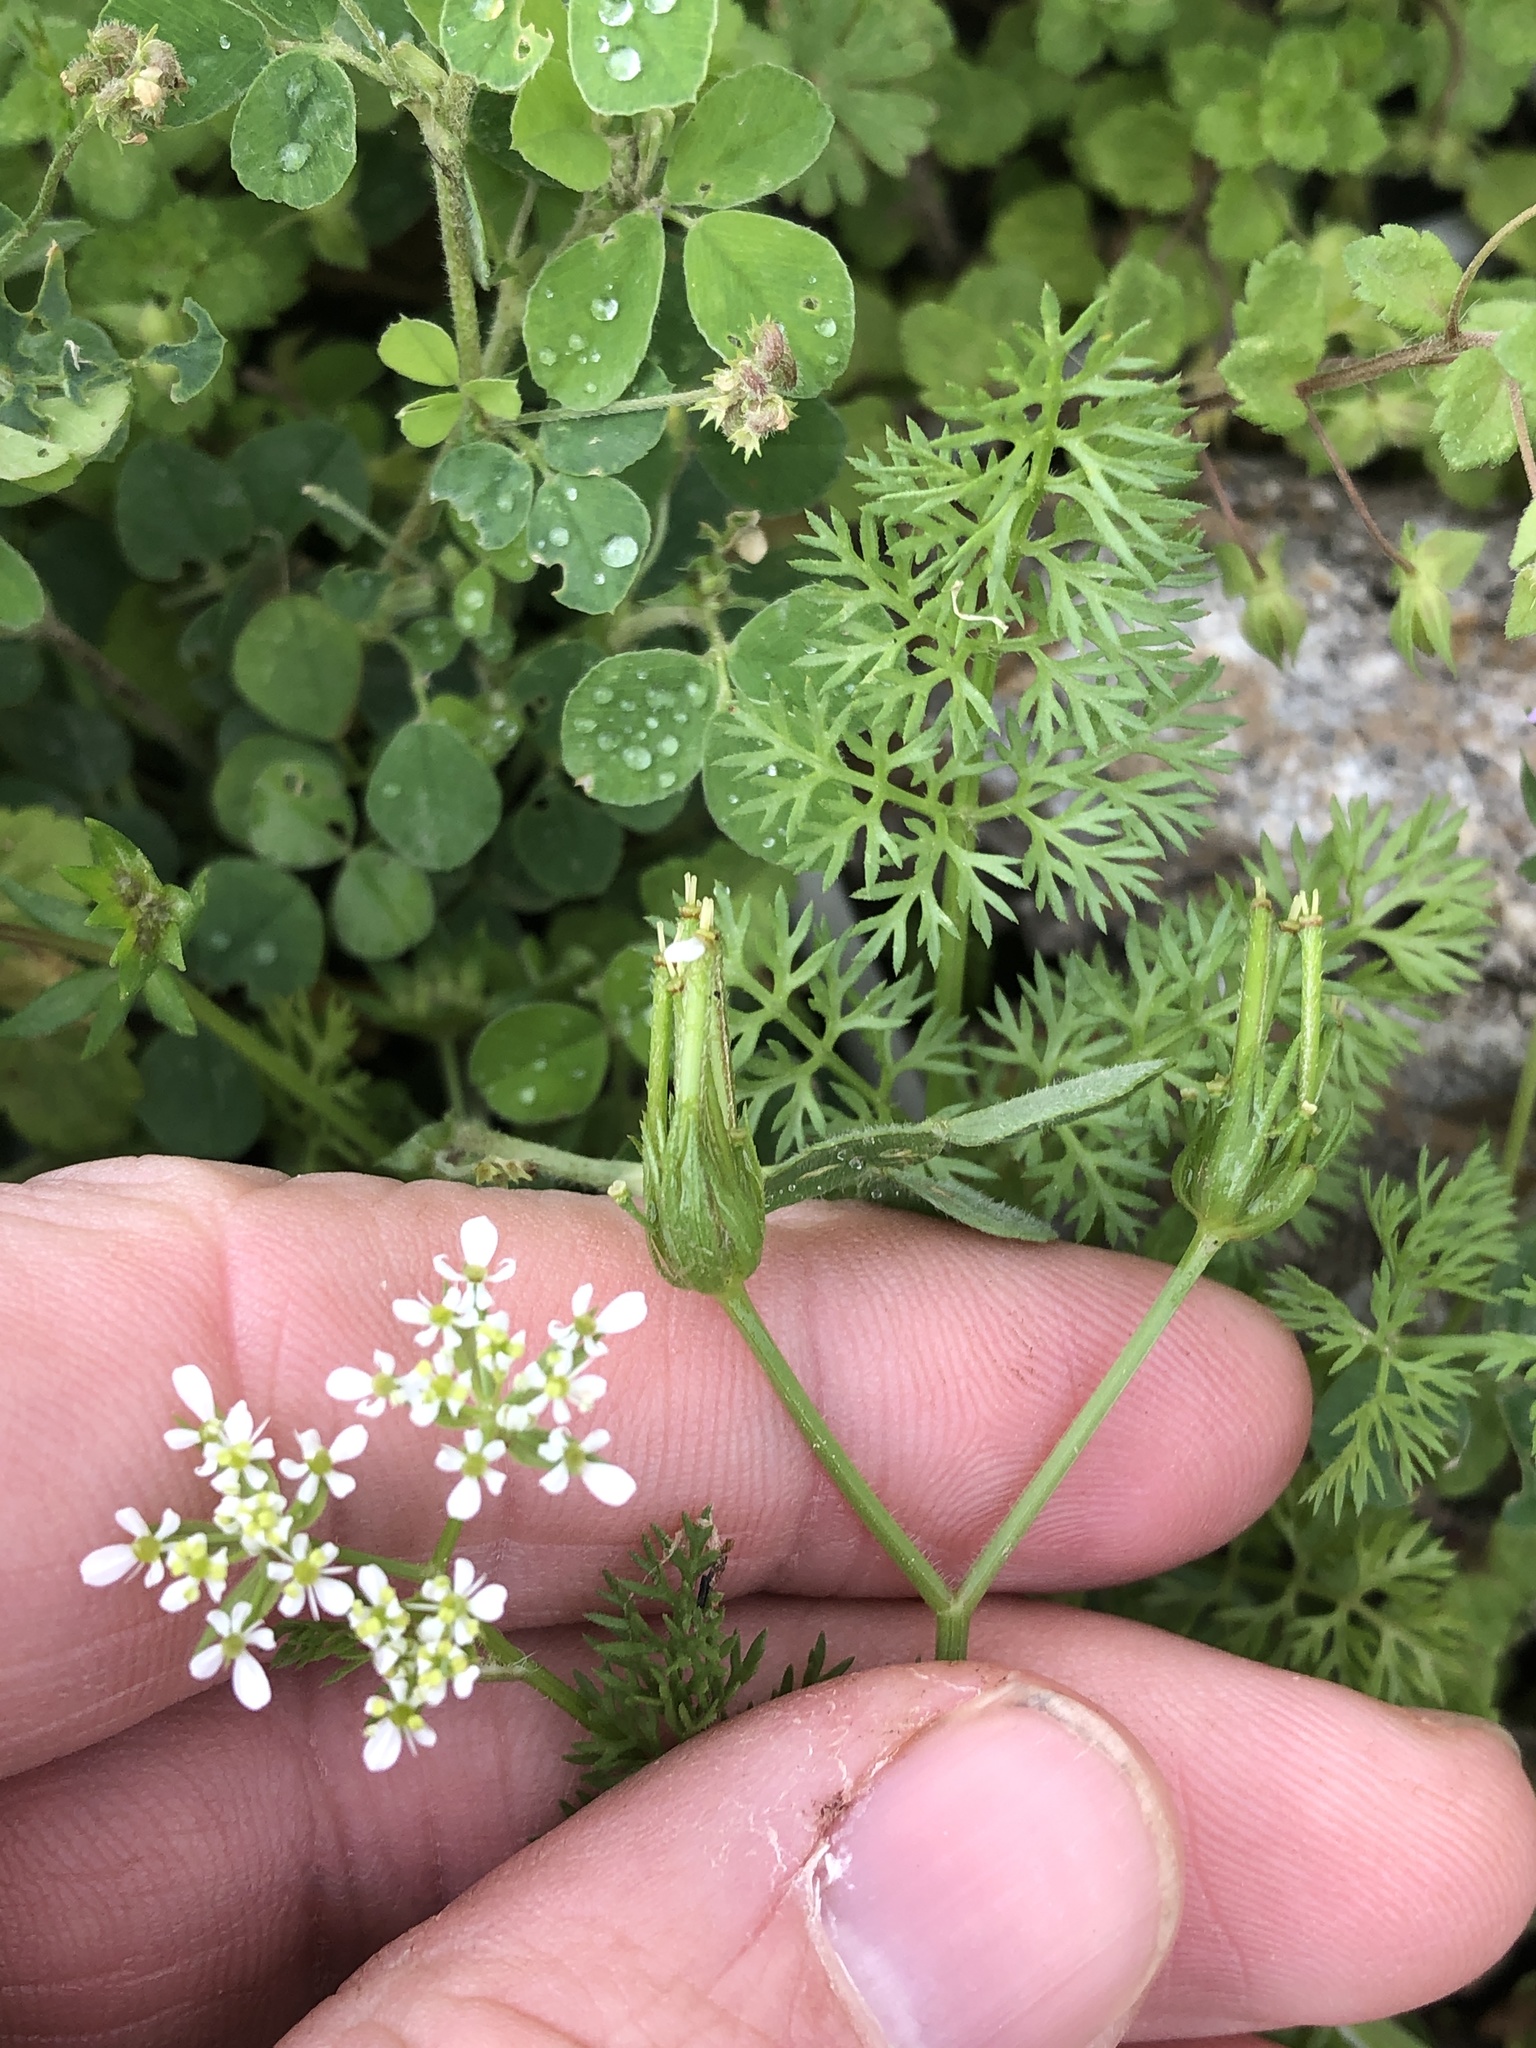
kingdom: Plantae
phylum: Tracheophyta
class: Magnoliopsida
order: Apiales
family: Apiaceae
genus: Scandix
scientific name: Scandix pecten-veneris
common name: Shepherd's-needle
